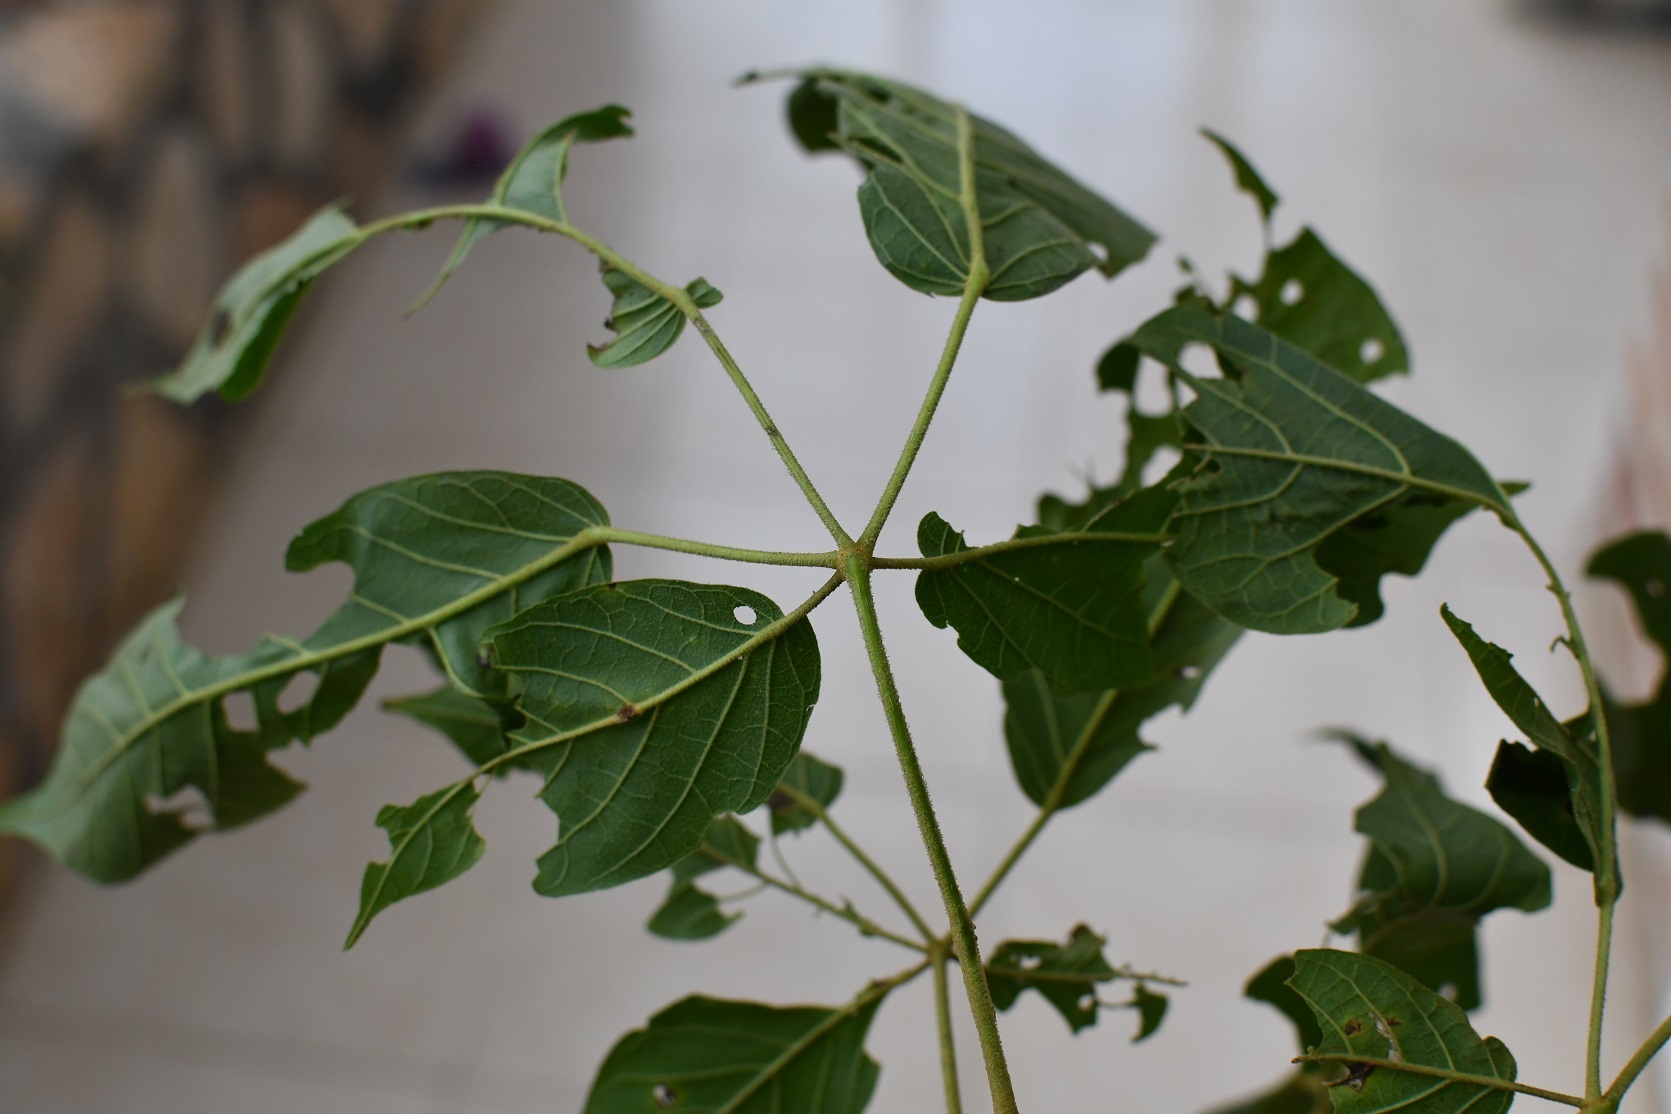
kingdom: Plantae
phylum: Tracheophyta
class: Magnoliopsida
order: Lamiales
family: Lamiaceae
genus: Vitex
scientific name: Vitex pyramidata
